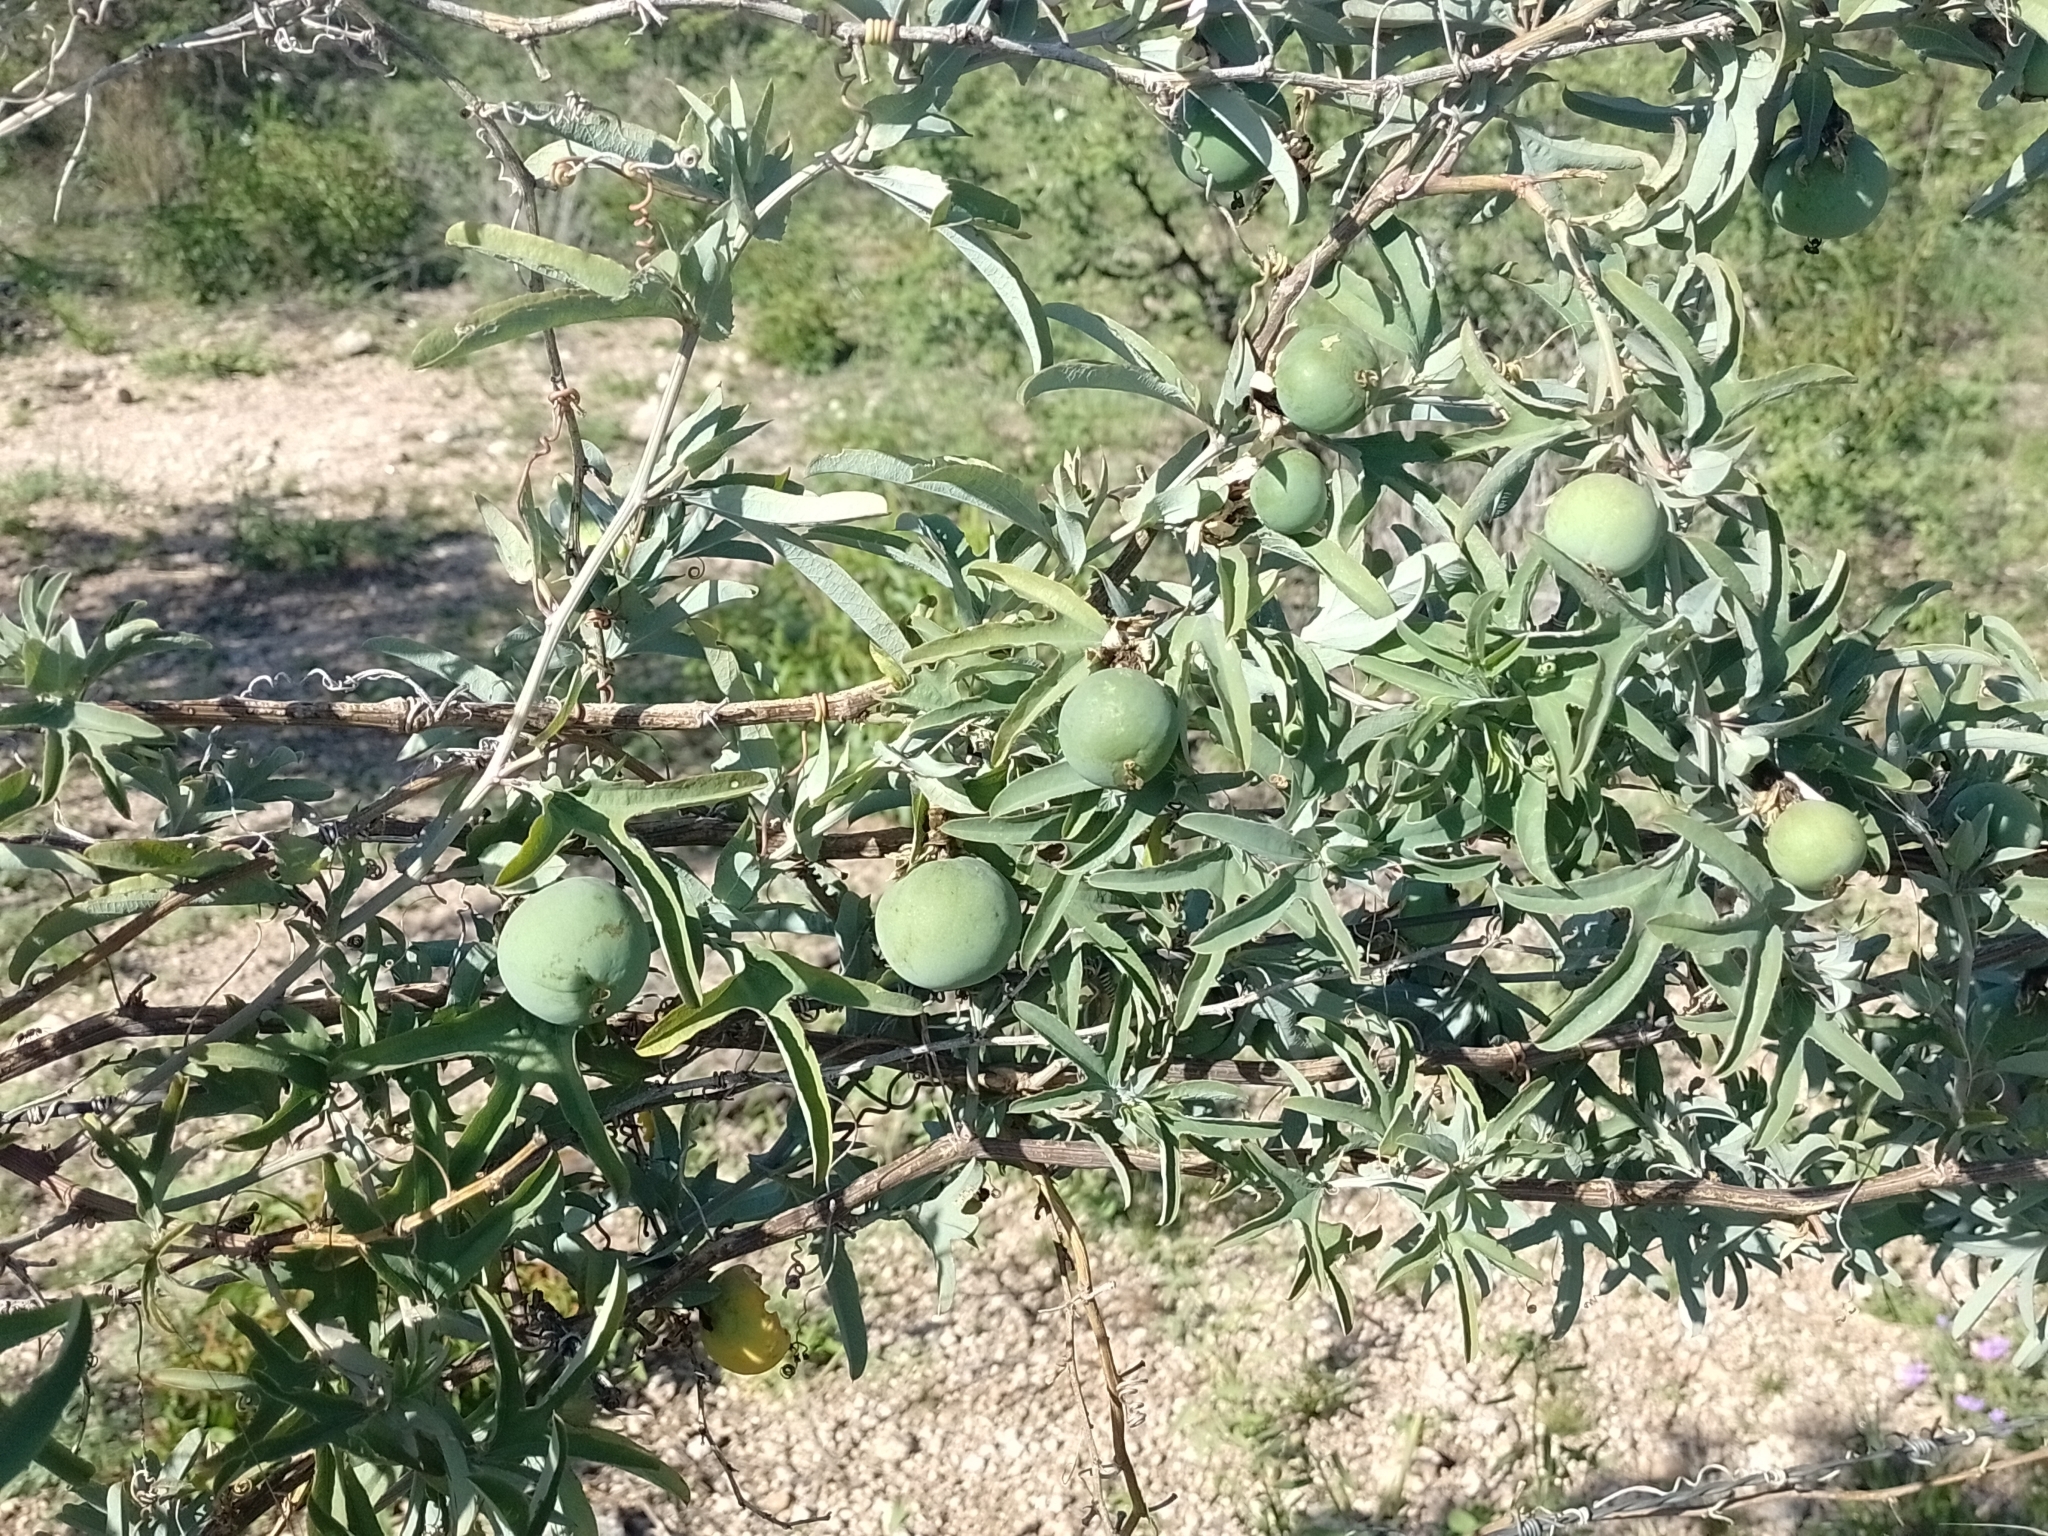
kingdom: Plantae
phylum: Tracheophyta
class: Magnoliopsida
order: Malpighiales
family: Passifloraceae
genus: Passiflora
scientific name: Passiflora mooreana
